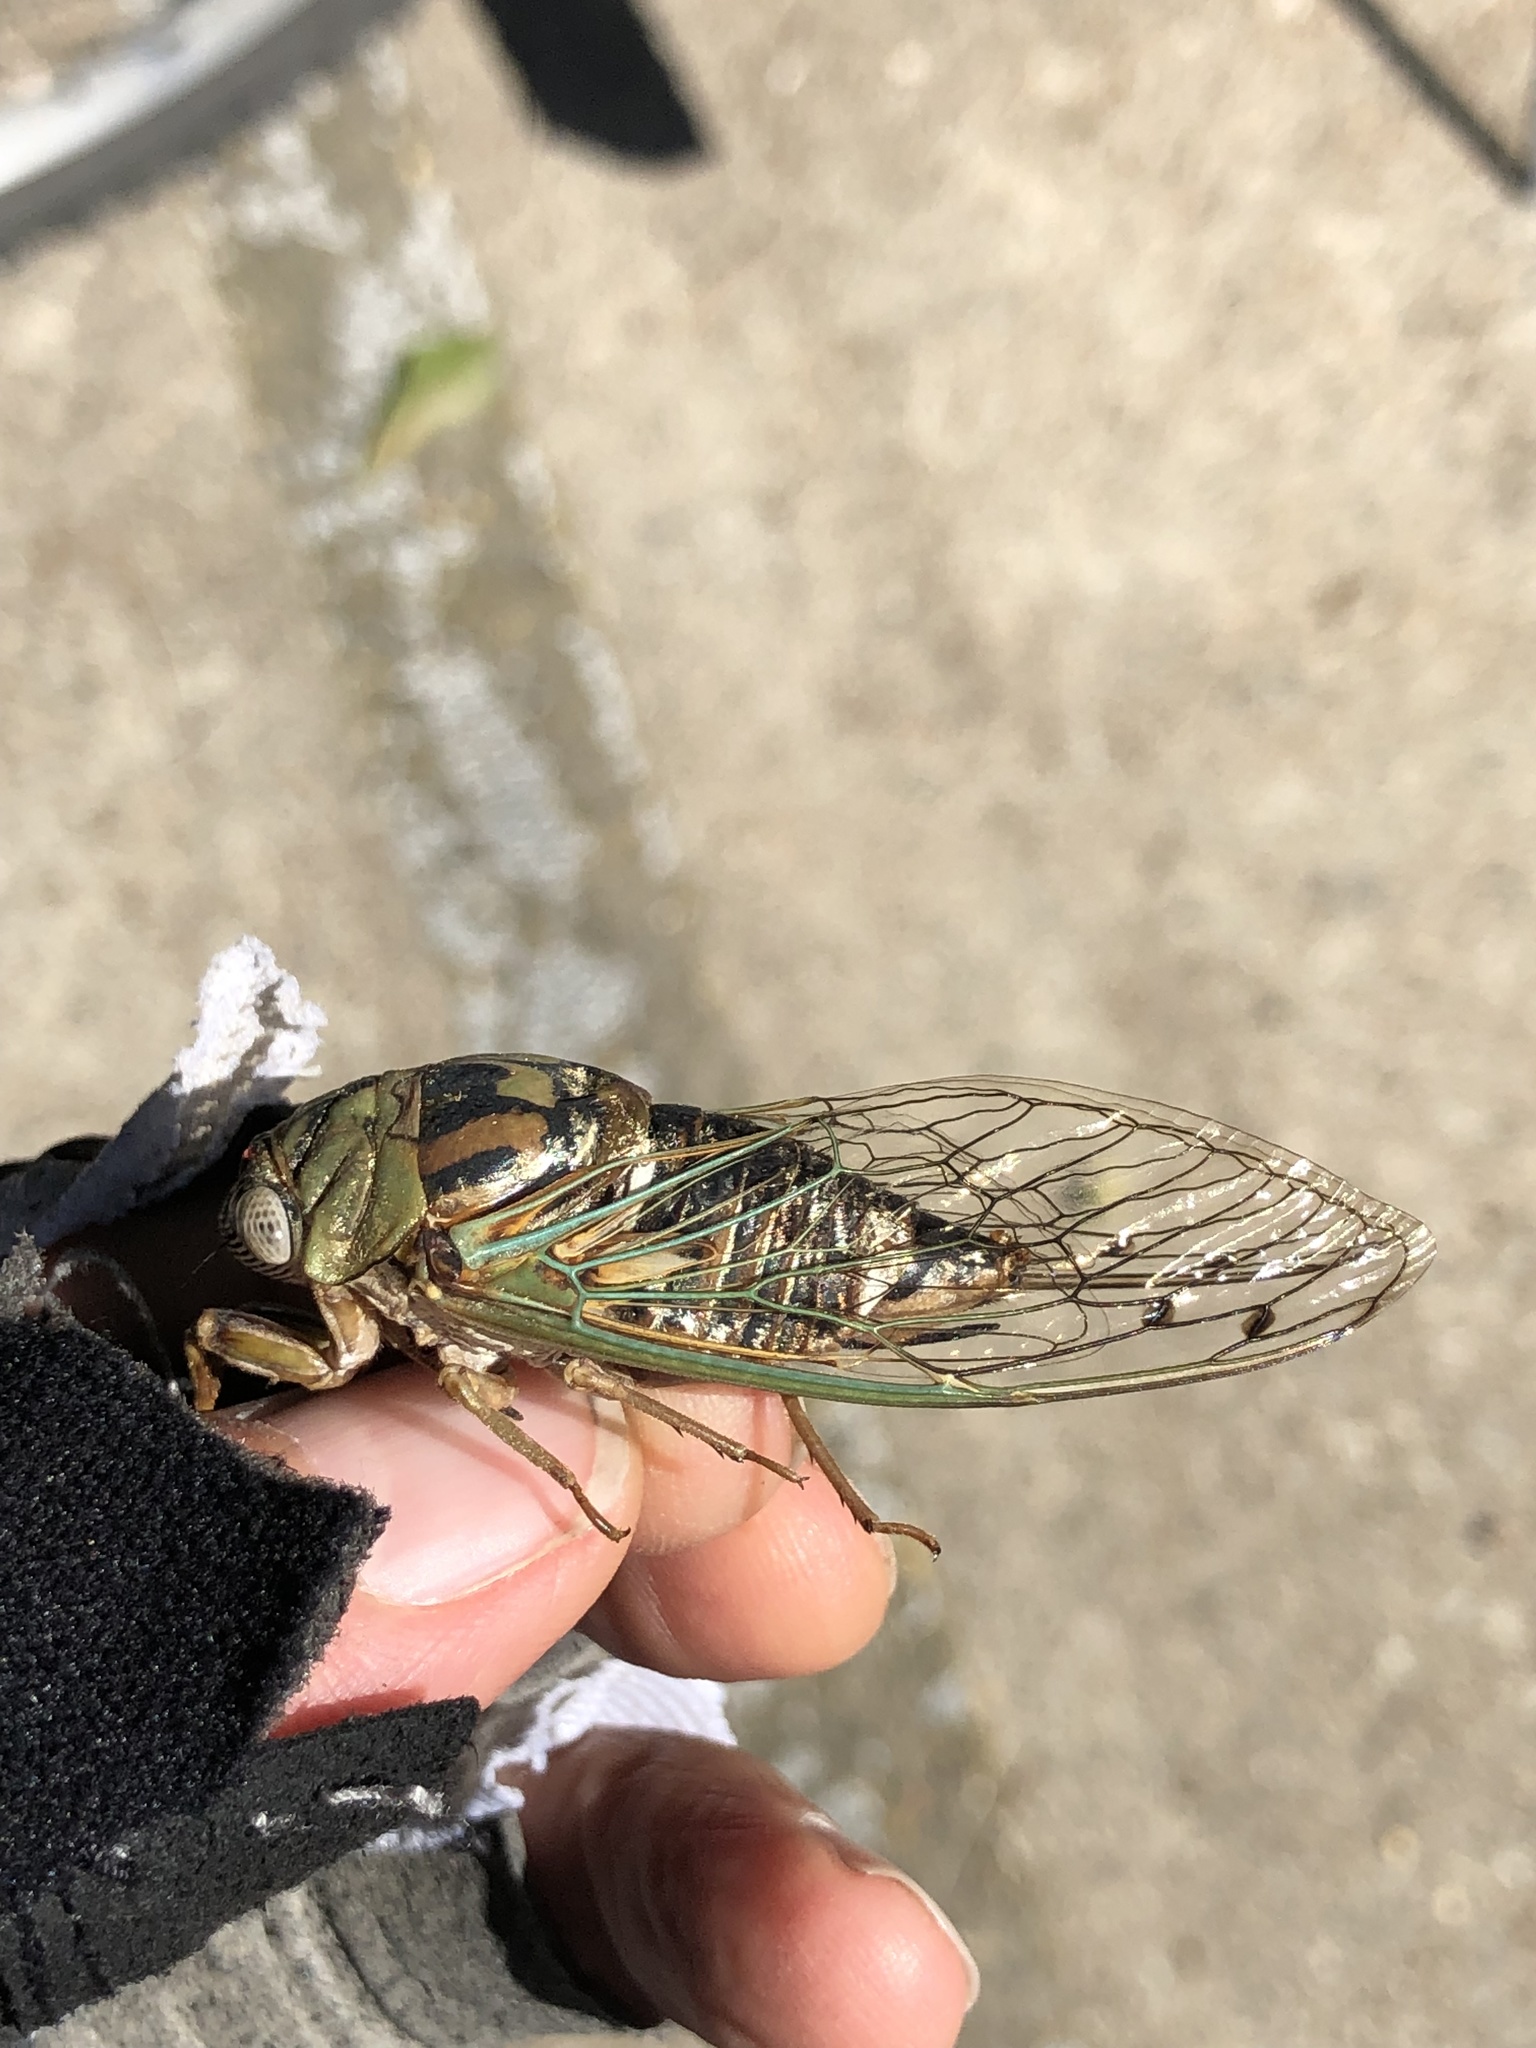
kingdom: Animalia
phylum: Arthropoda
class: Insecta
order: Hemiptera
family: Cicadidae
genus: Megatibicen
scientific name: Megatibicen resh
